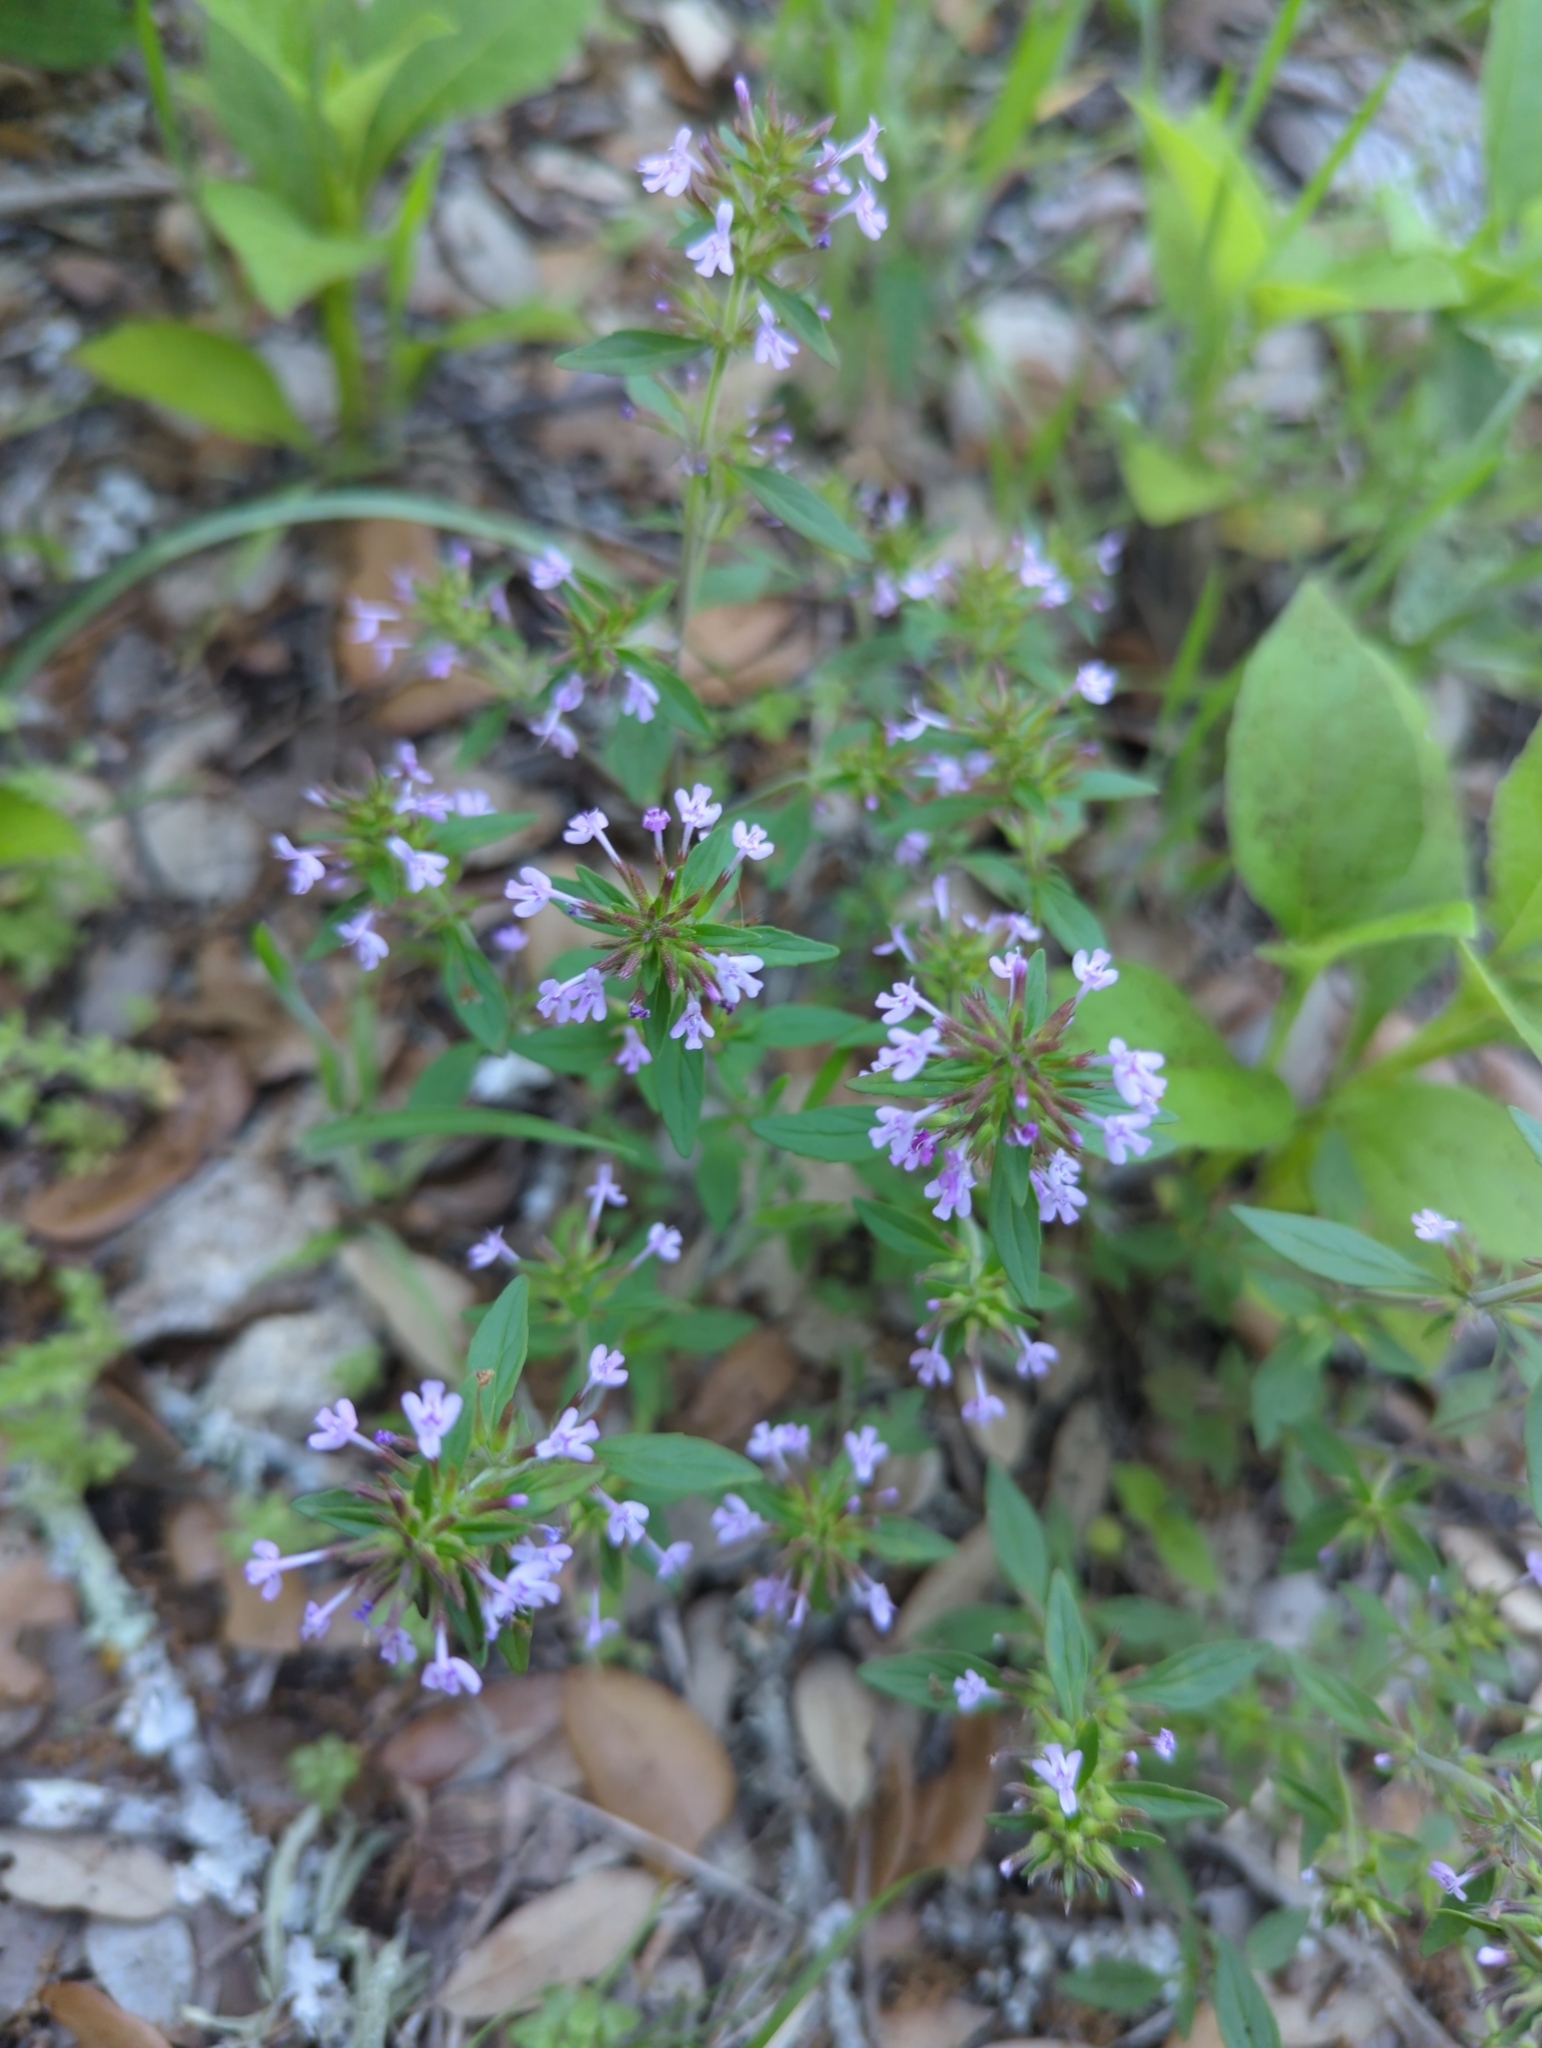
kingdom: Plantae
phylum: Tracheophyta
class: Magnoliopsida
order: Lamiales
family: Lamiaceae
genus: Hedeoma
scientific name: Hedeoma acinoides
